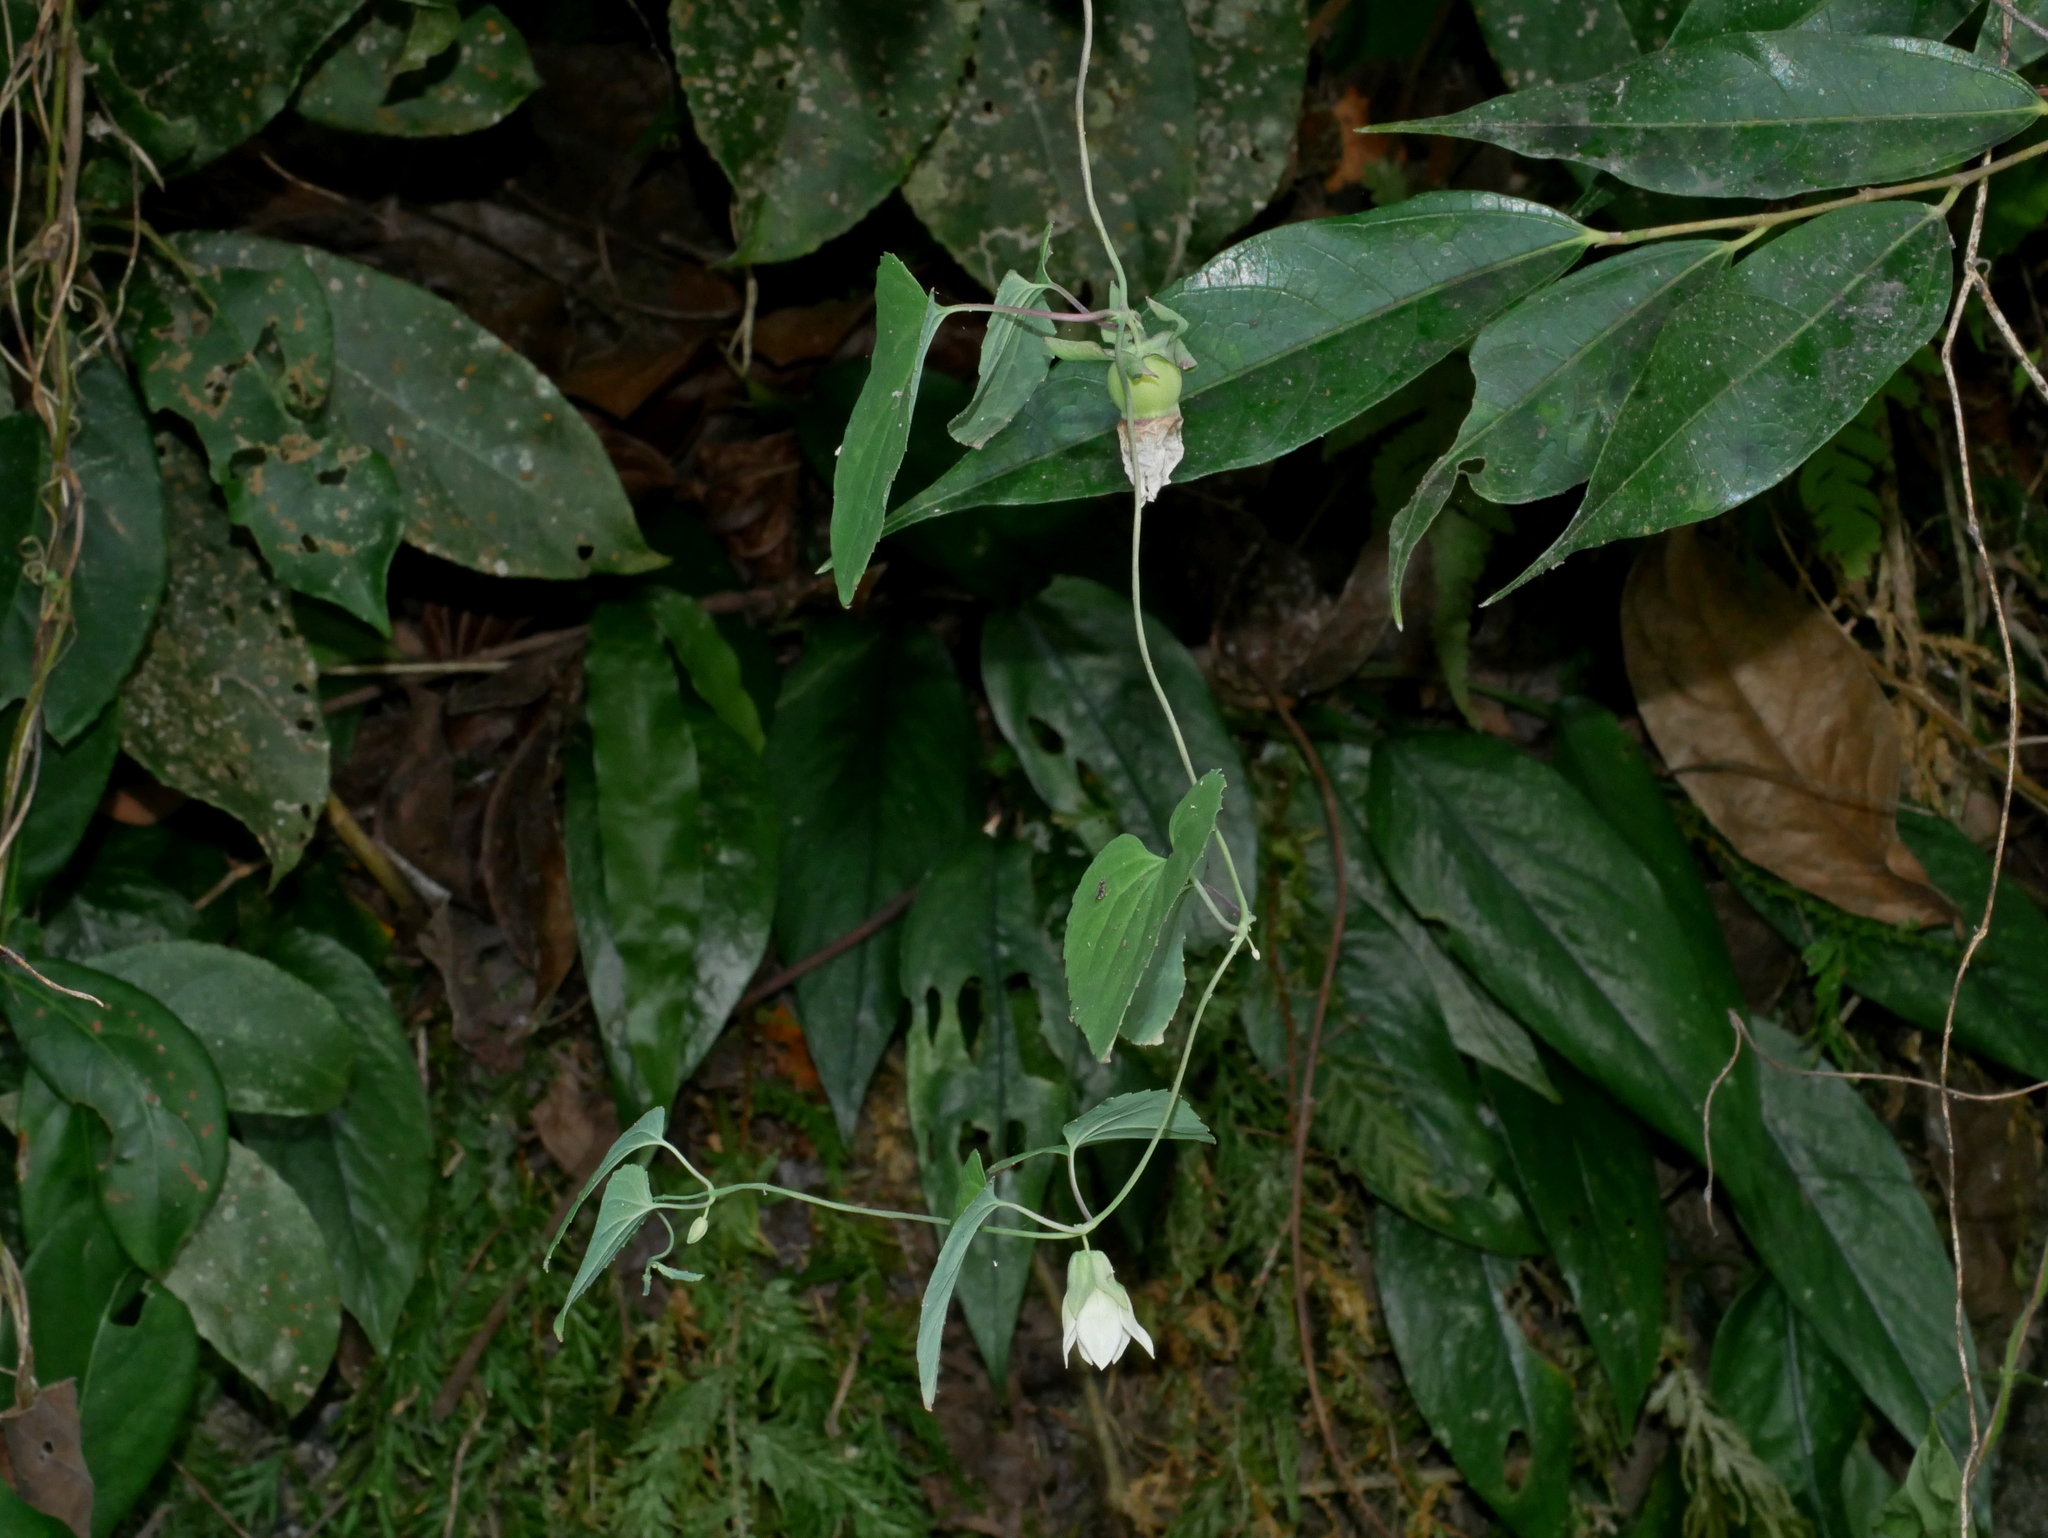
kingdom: Plantae
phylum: Tracheophyta
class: Magnoliopsida
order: Asterales
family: Campanulaceae
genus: Codonopsis
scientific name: Codonopsis javanica
